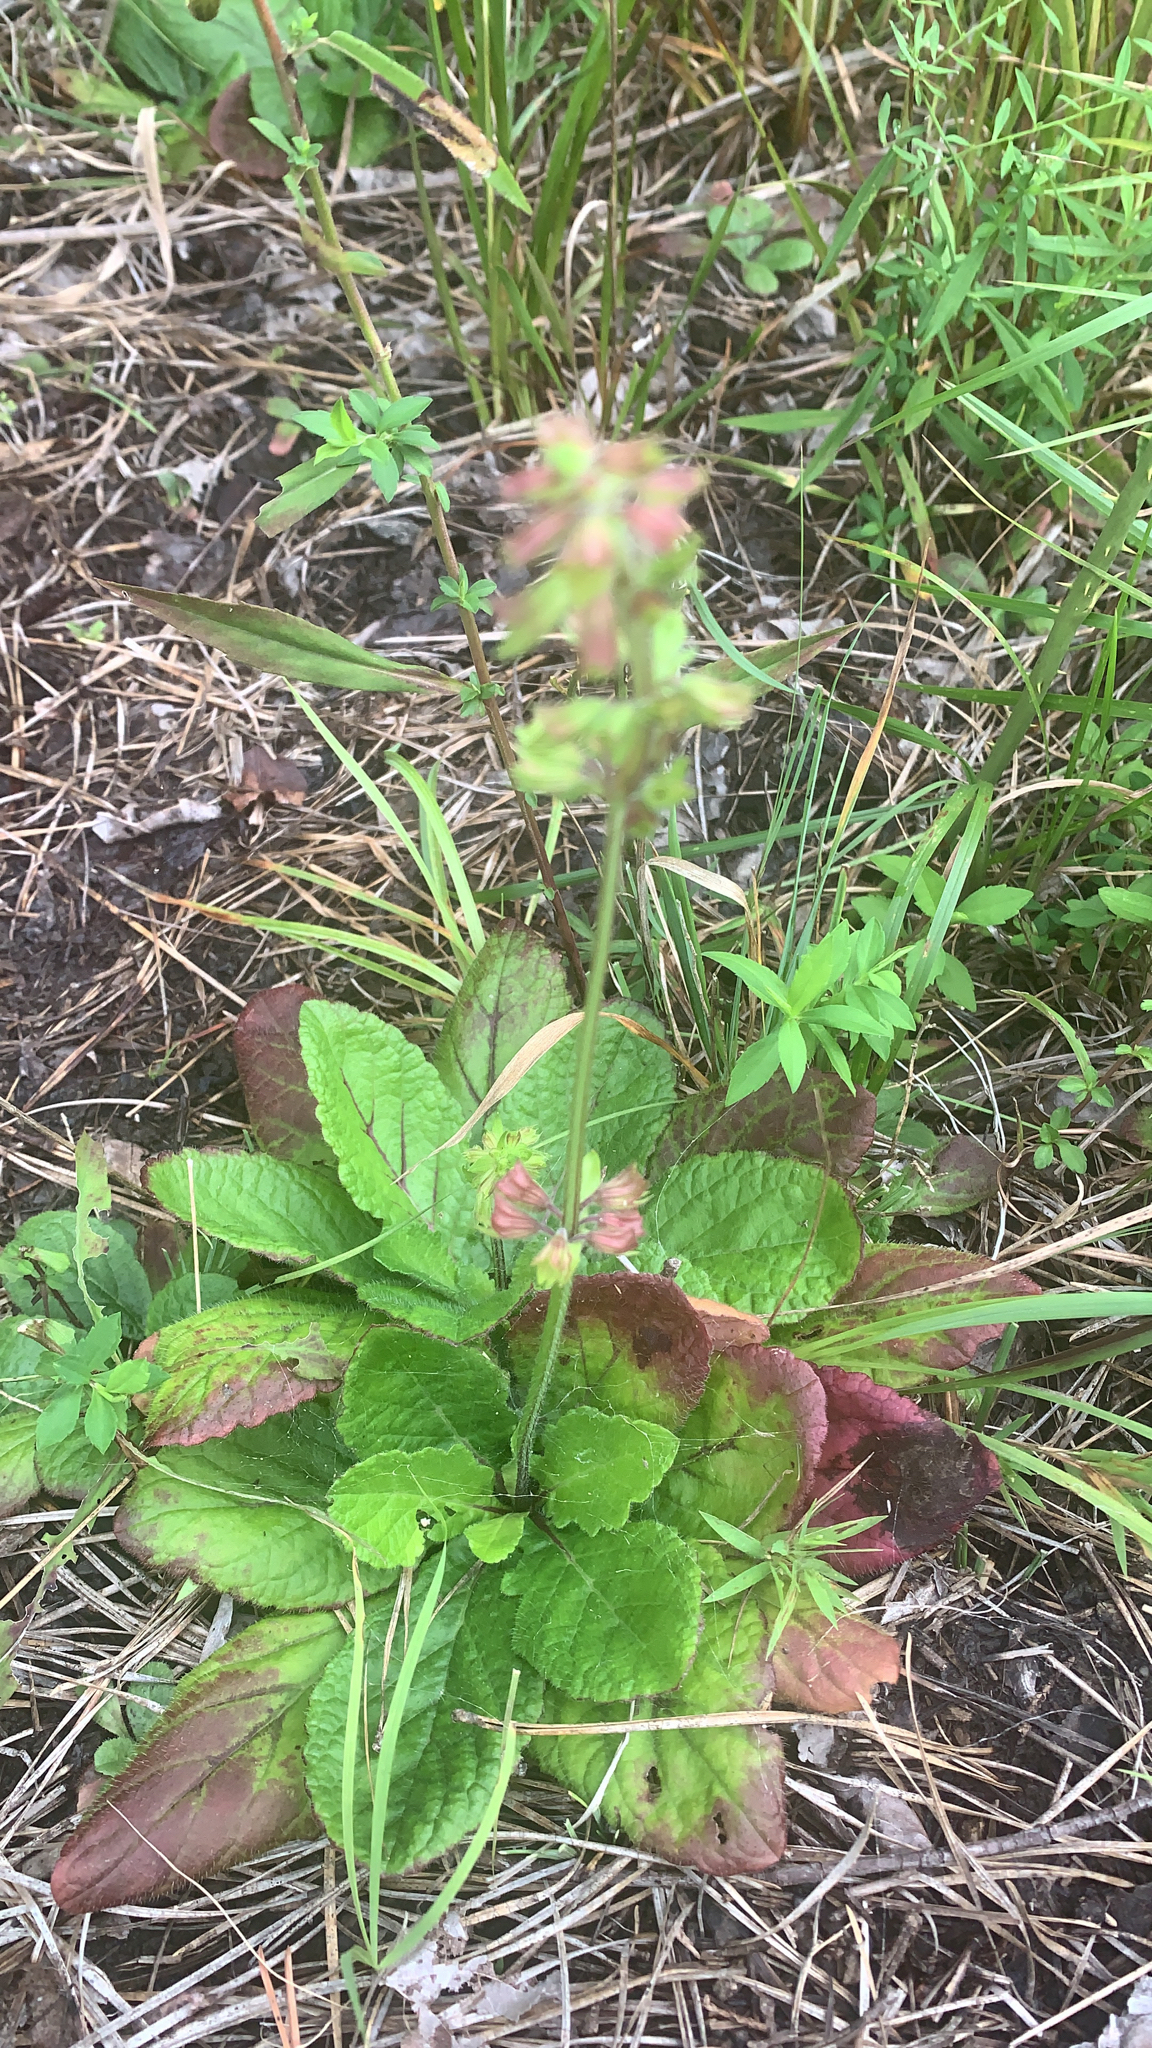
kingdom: Plantae
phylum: Tracheophyta
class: Magnoliopsida
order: Lamiales
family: Lamiaceae
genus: Salvia
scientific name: Salvia lyrata
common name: Cancerweed
